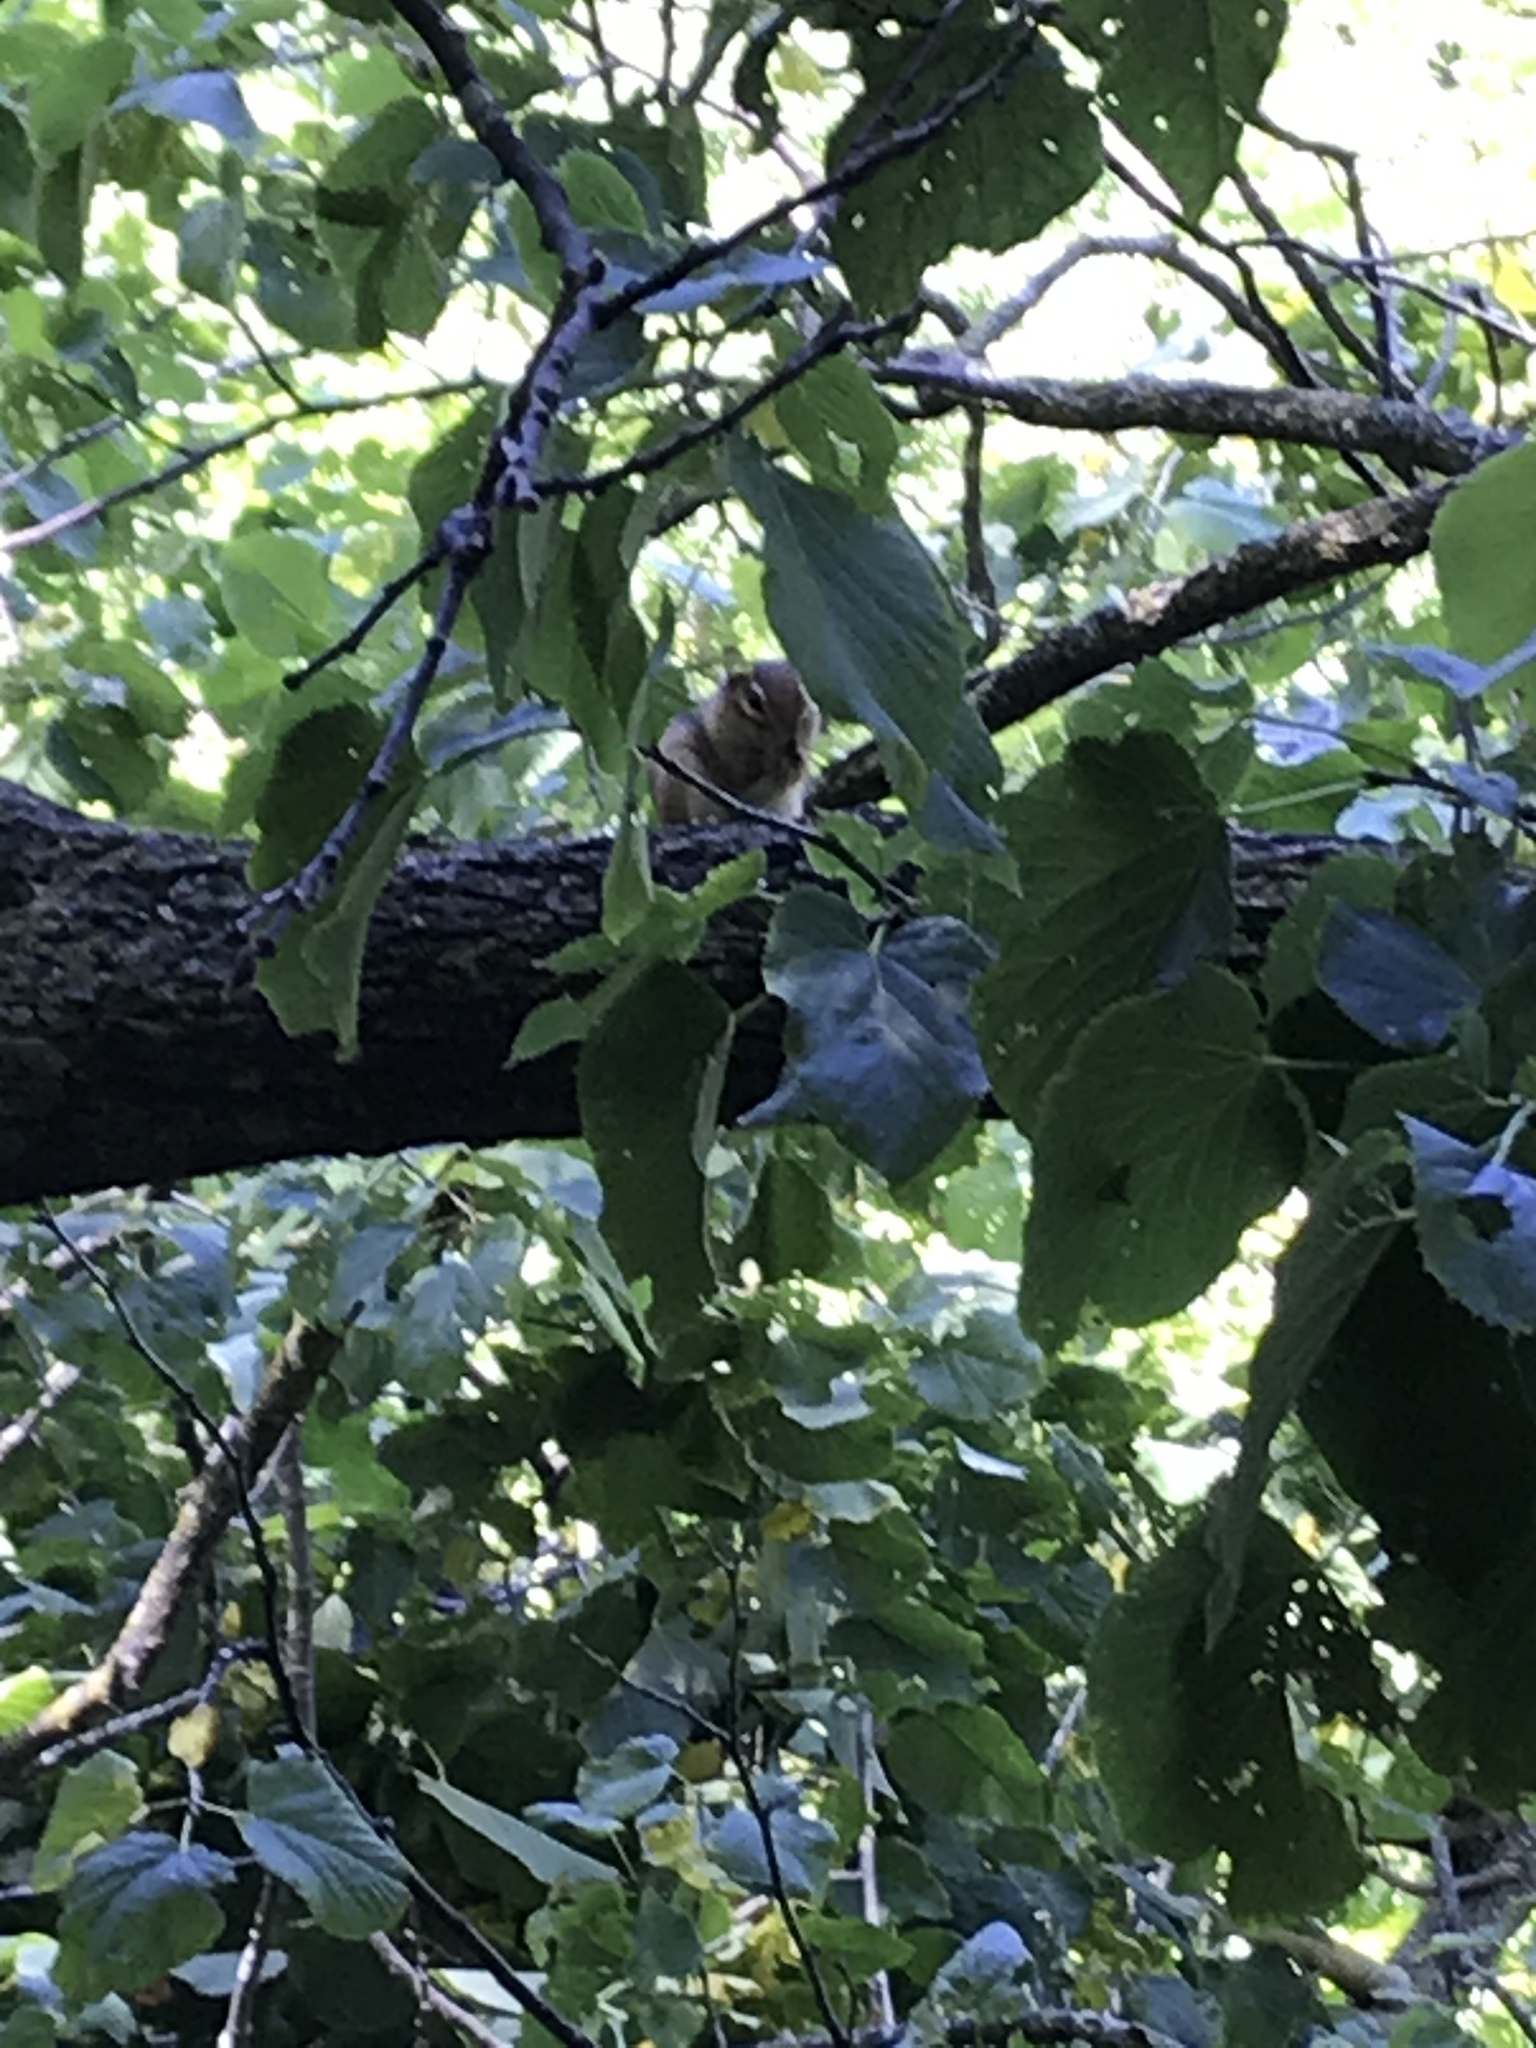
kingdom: Animalia
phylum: Chordata
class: Mammalia
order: Rodentia
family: Sciuridae
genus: Tamias
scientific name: Tamias striatus
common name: Eastern chipmunk
